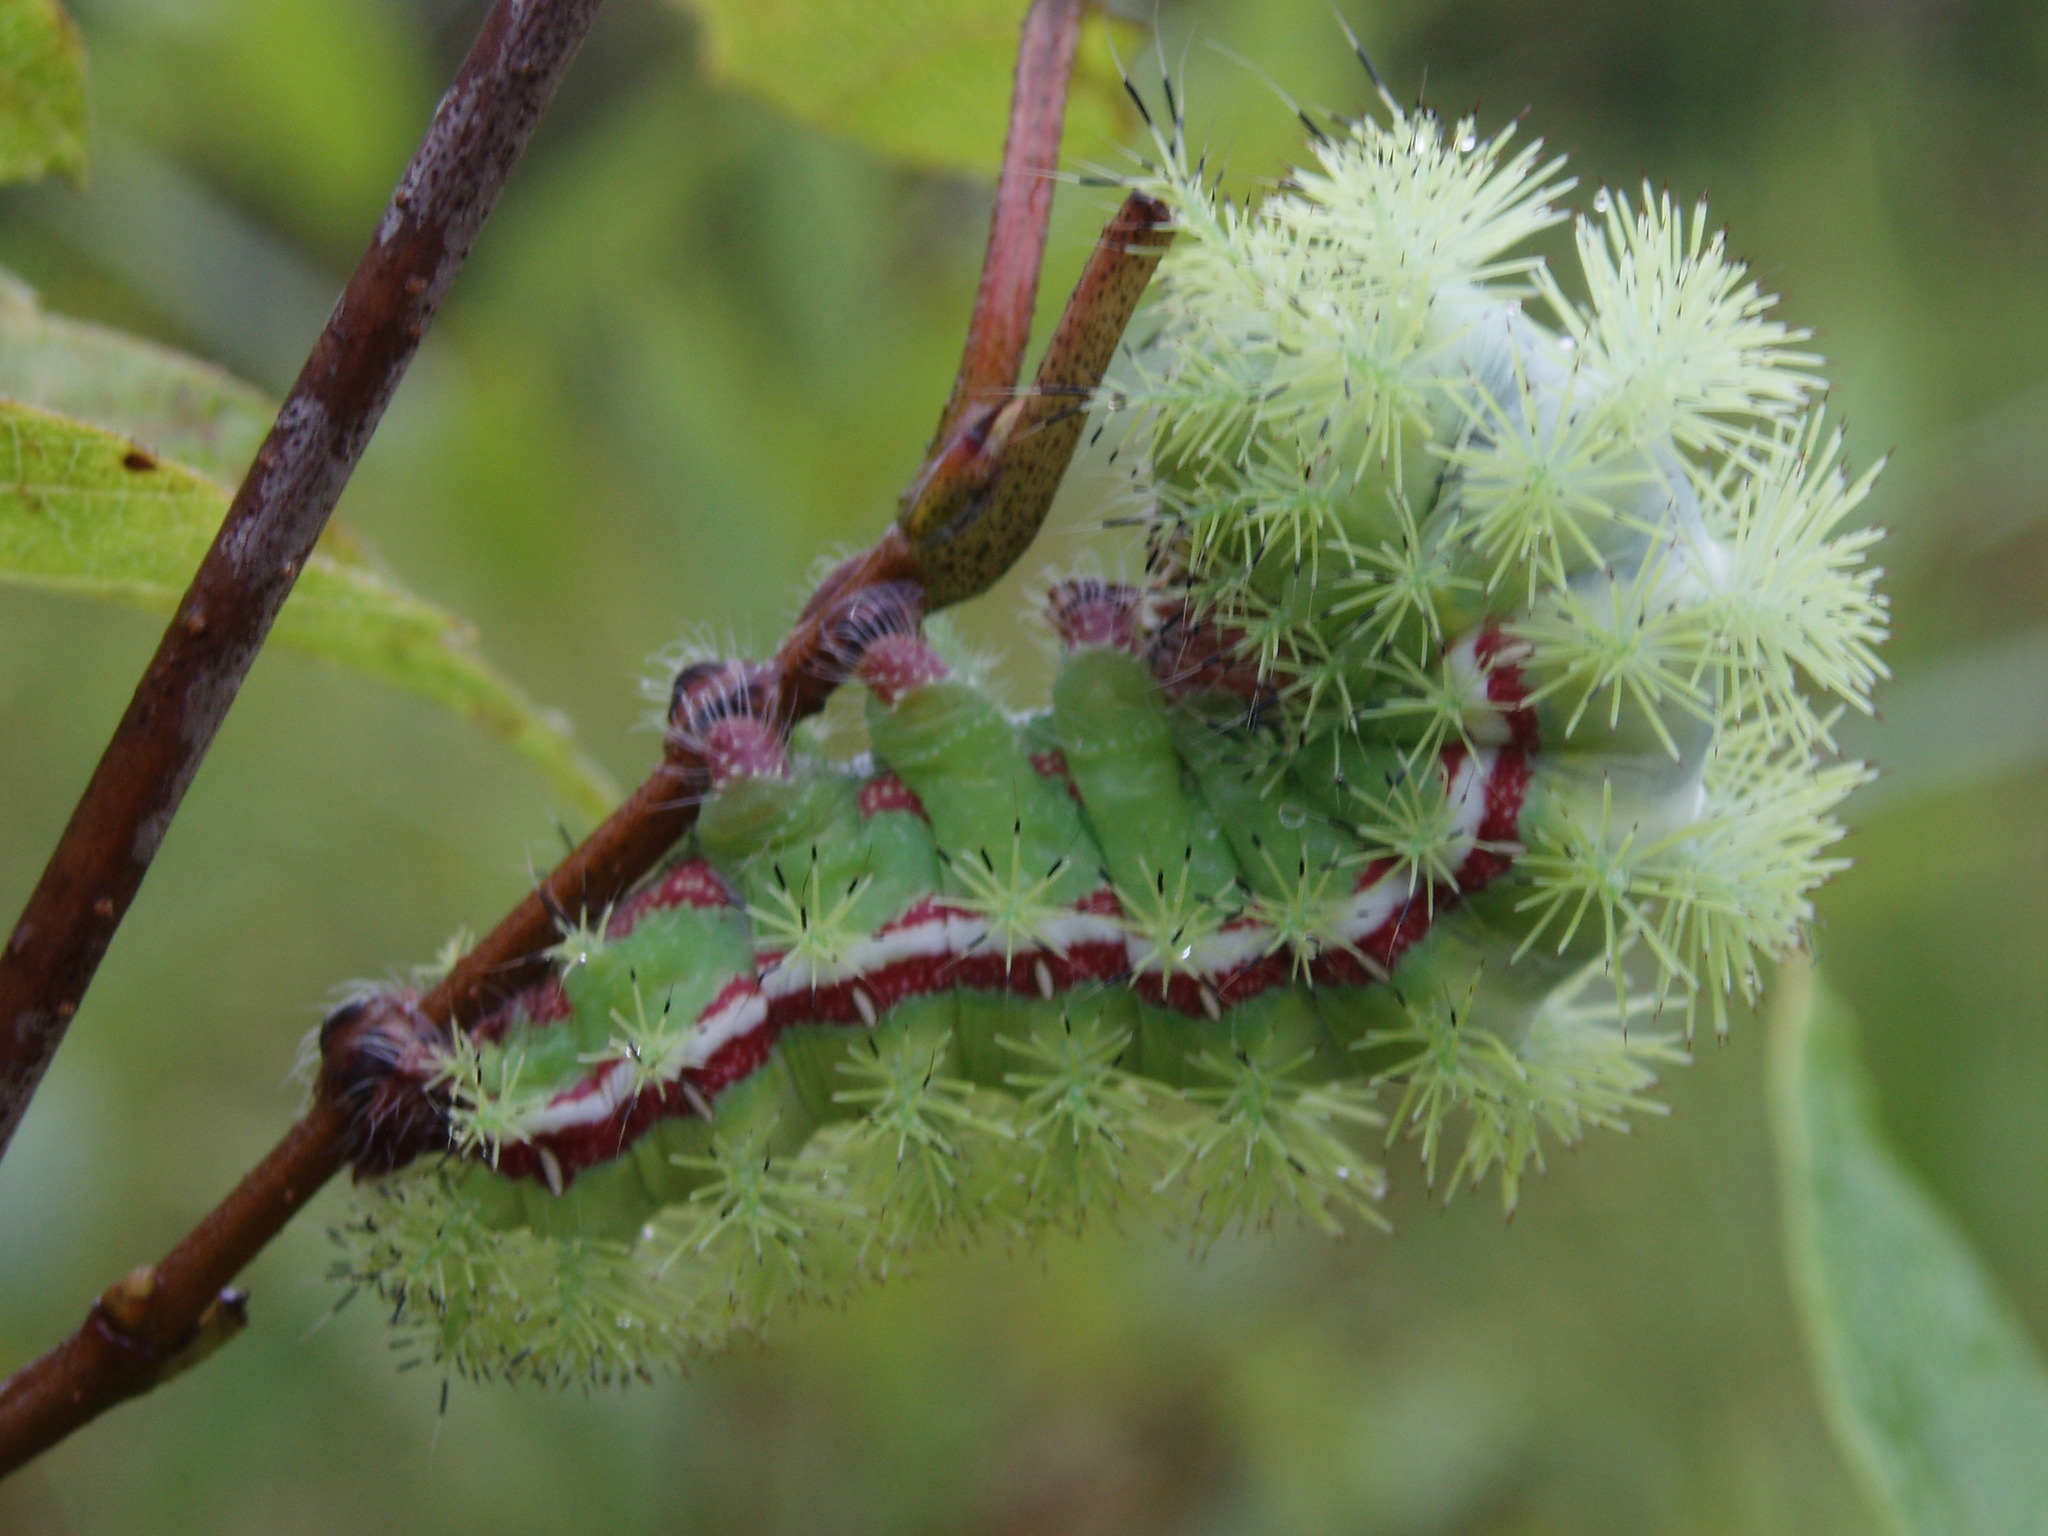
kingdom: Animalia
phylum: Arthropoda
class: Insecta
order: Lepidoptera
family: Saturniidae
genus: Automeris
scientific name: Automeris io
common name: Io moth
